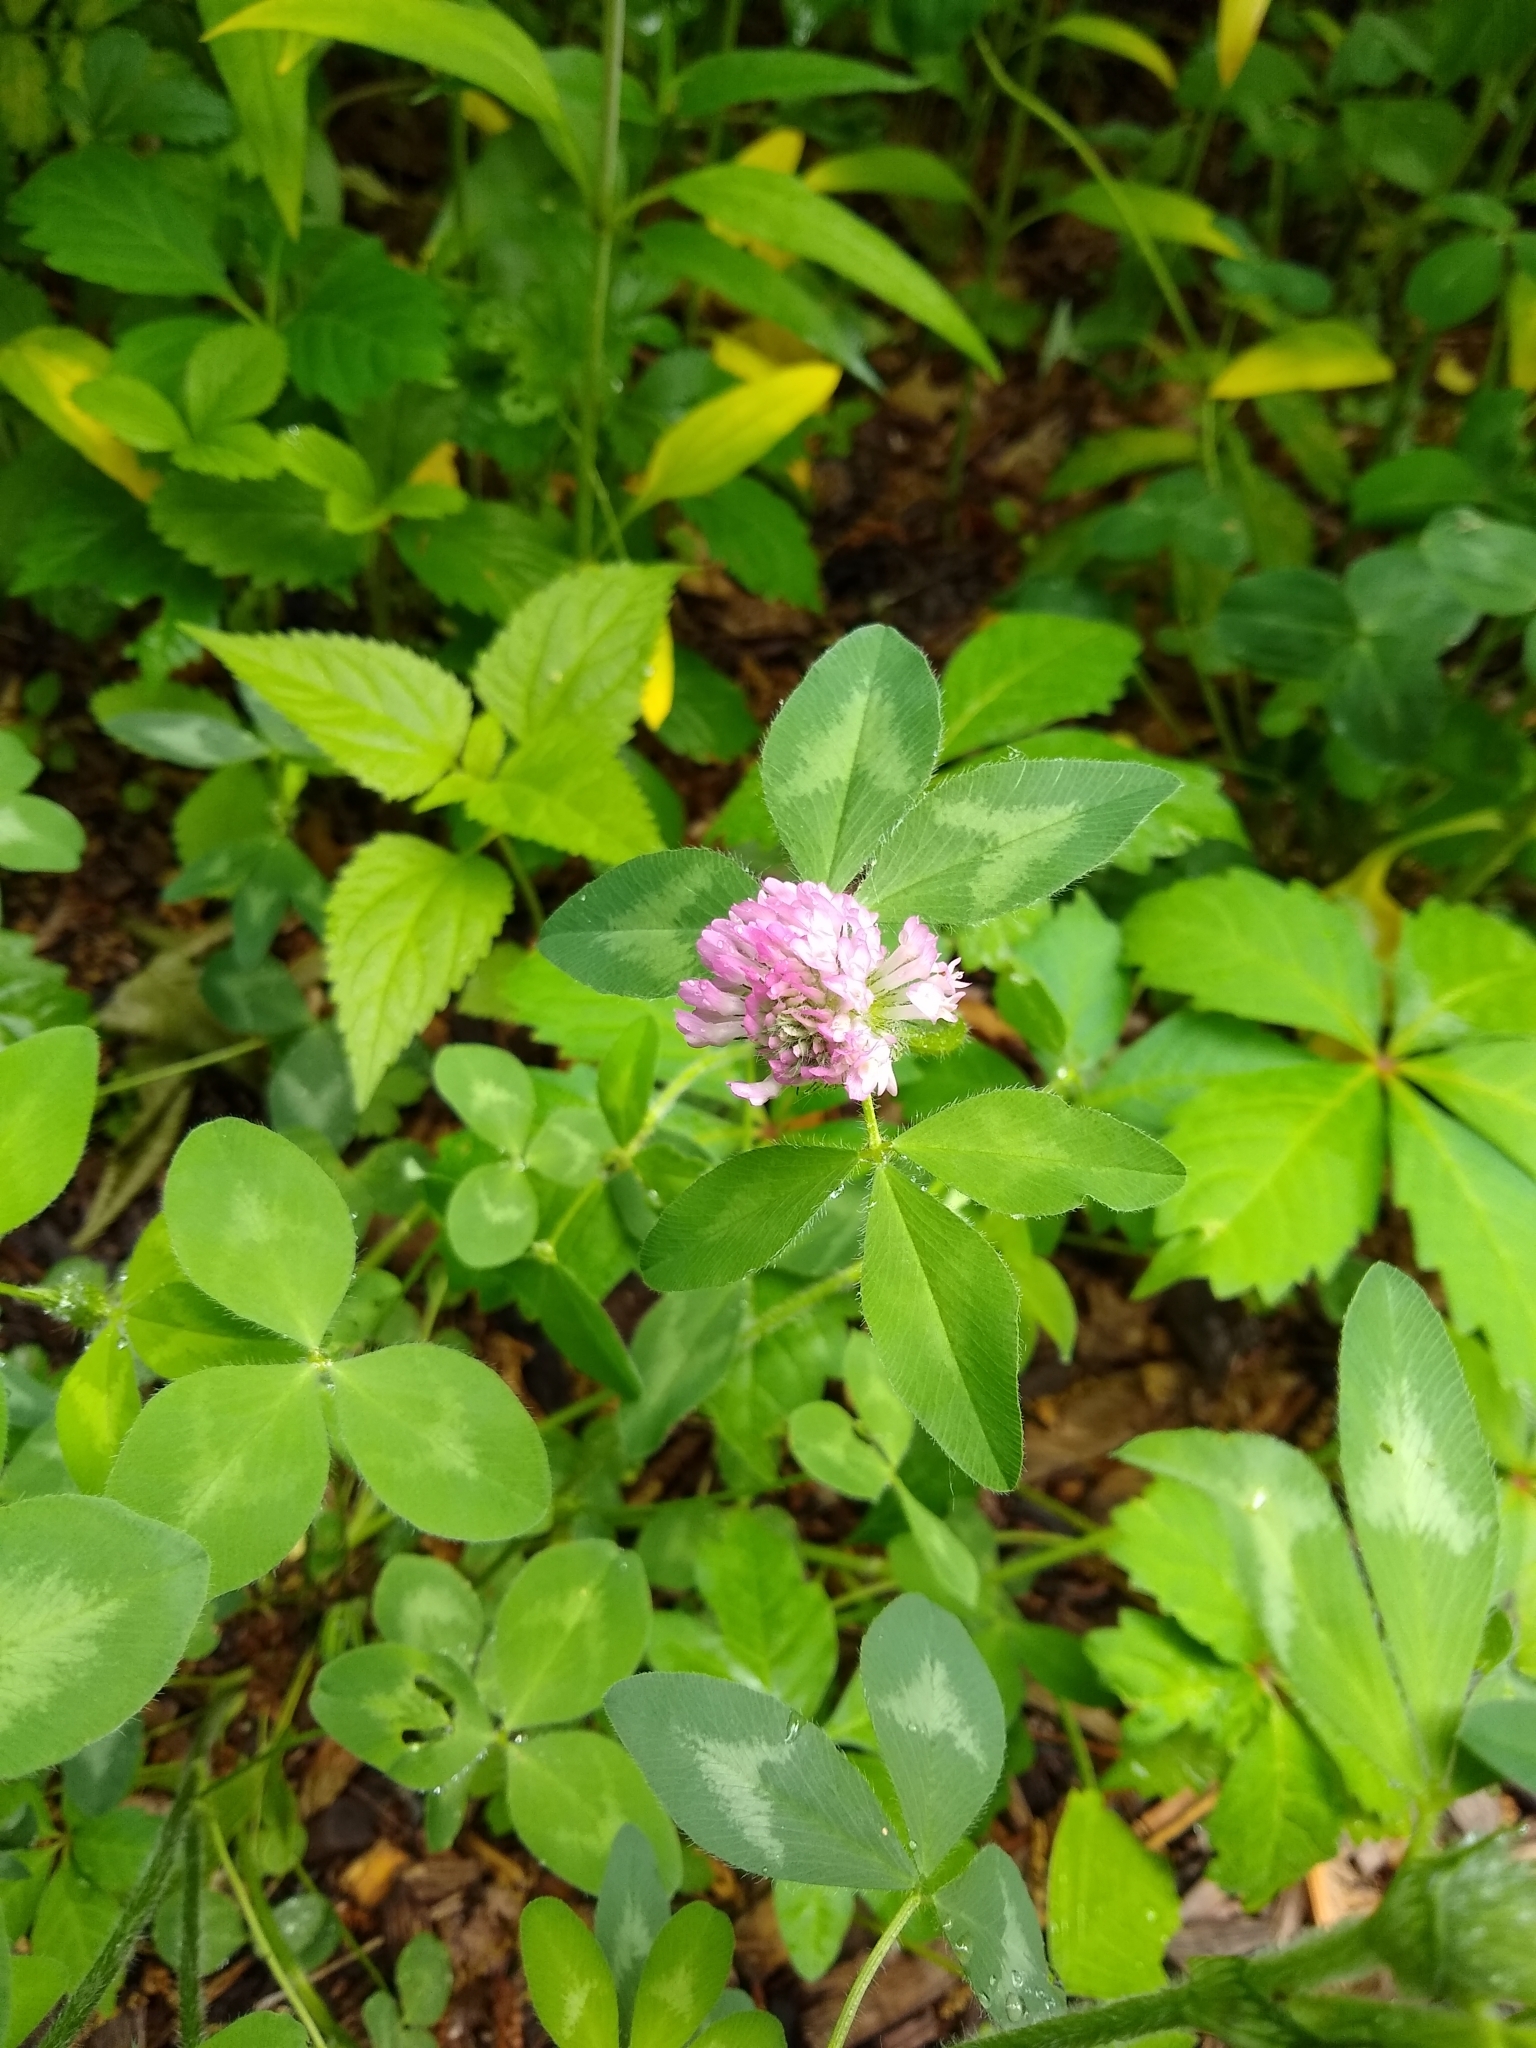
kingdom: Plantae
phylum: Tracheophyta
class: Magnoliopsida
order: Fabales
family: Fabaceae
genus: Trifolium
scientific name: Trifolium pratense
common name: Red clover
